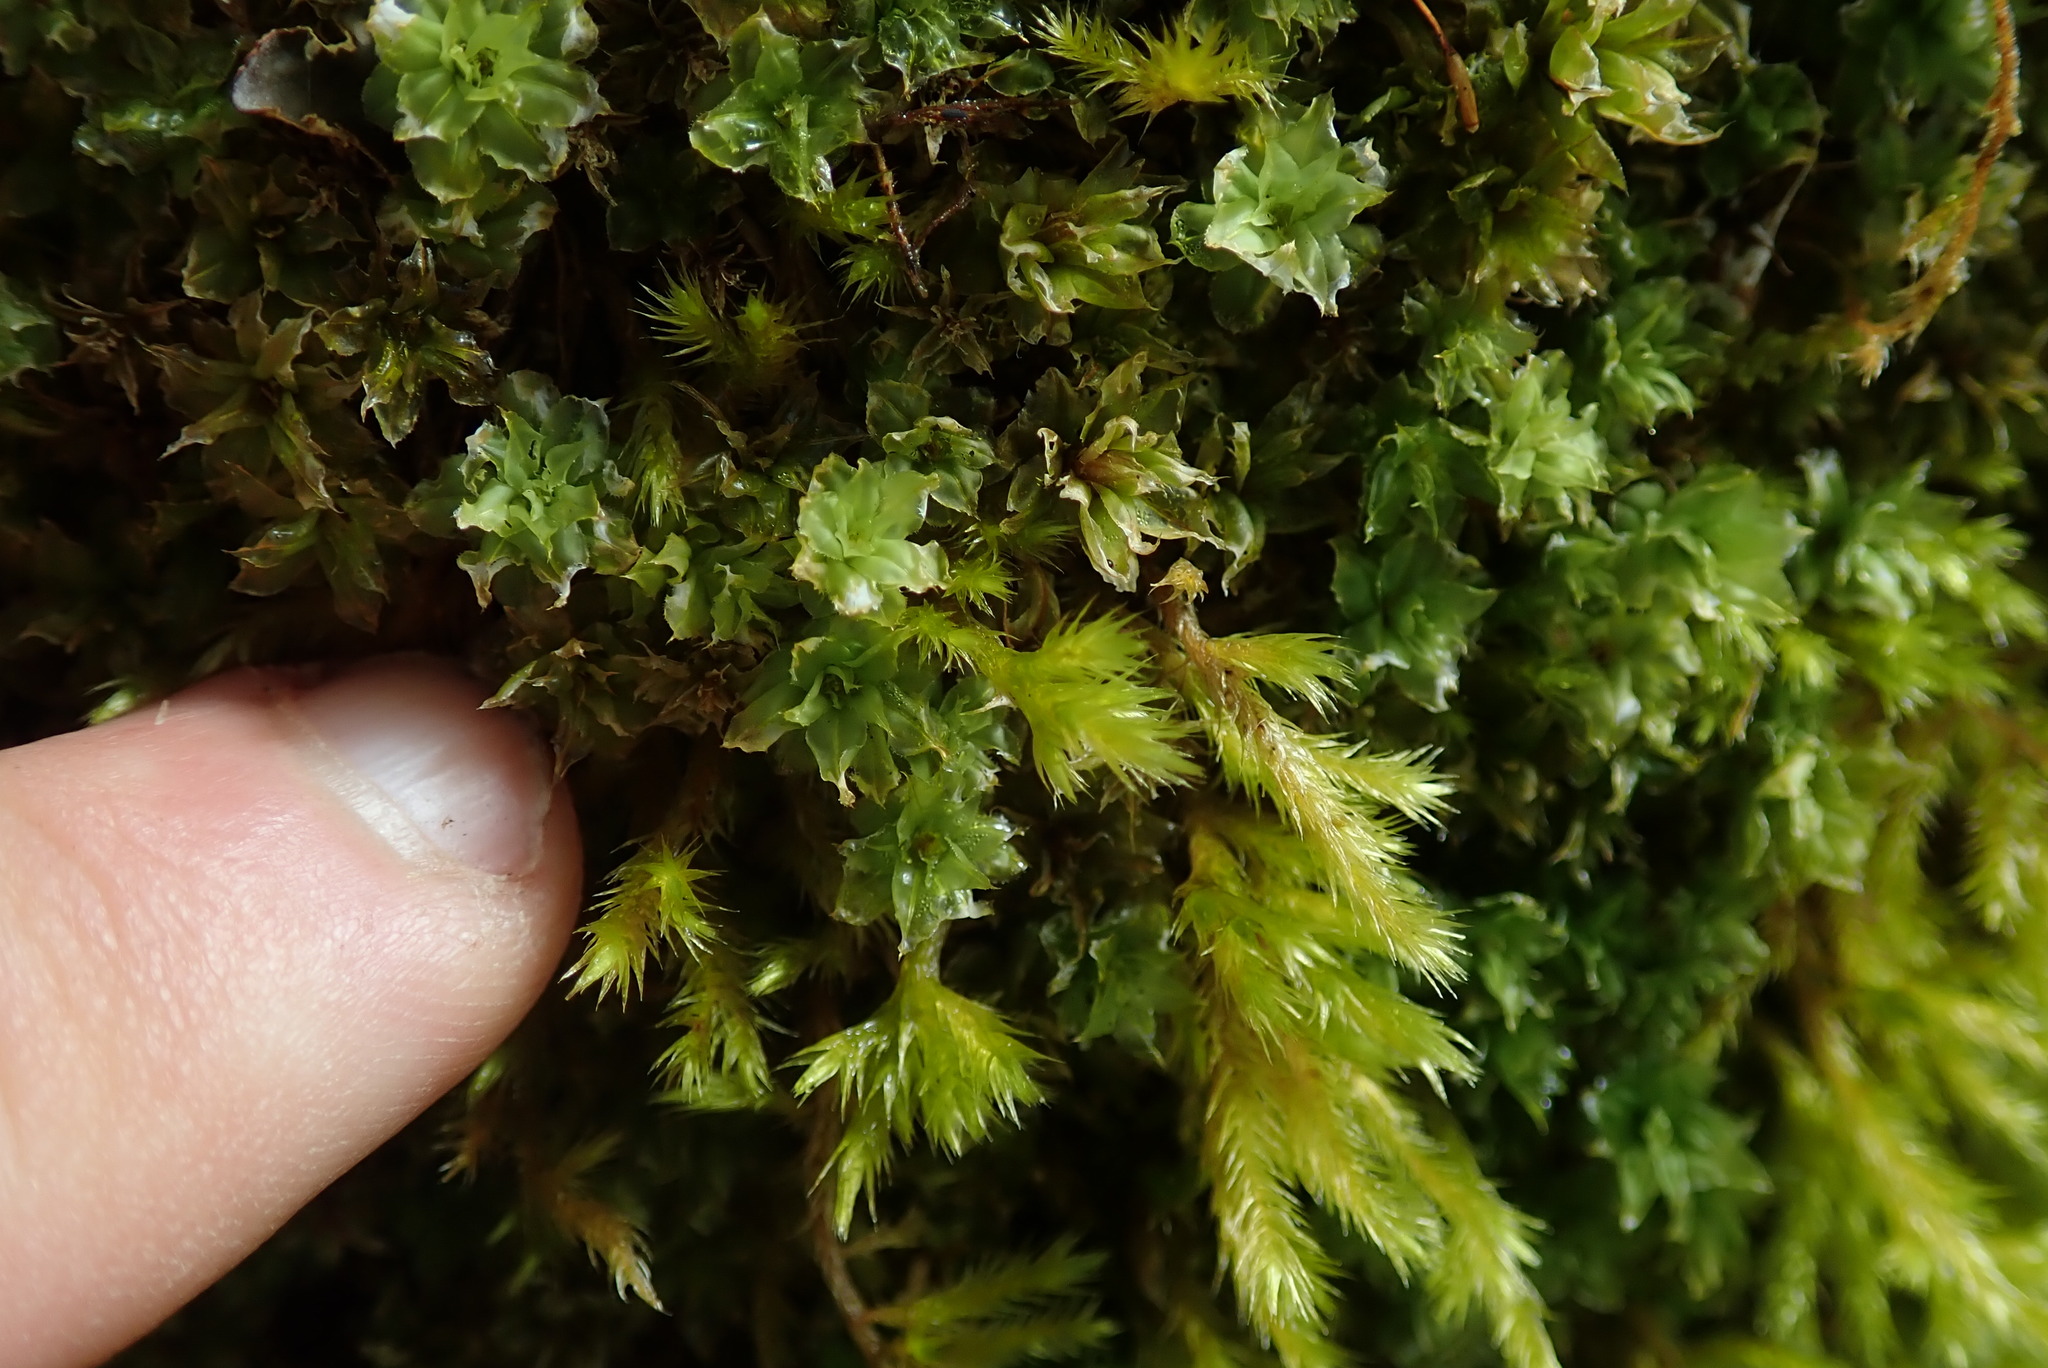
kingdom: Plantae
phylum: Bryophyta
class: Bryopsida
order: Bryales
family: Mniaceae
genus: Plagiomnium
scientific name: Plagiomnium venustum
